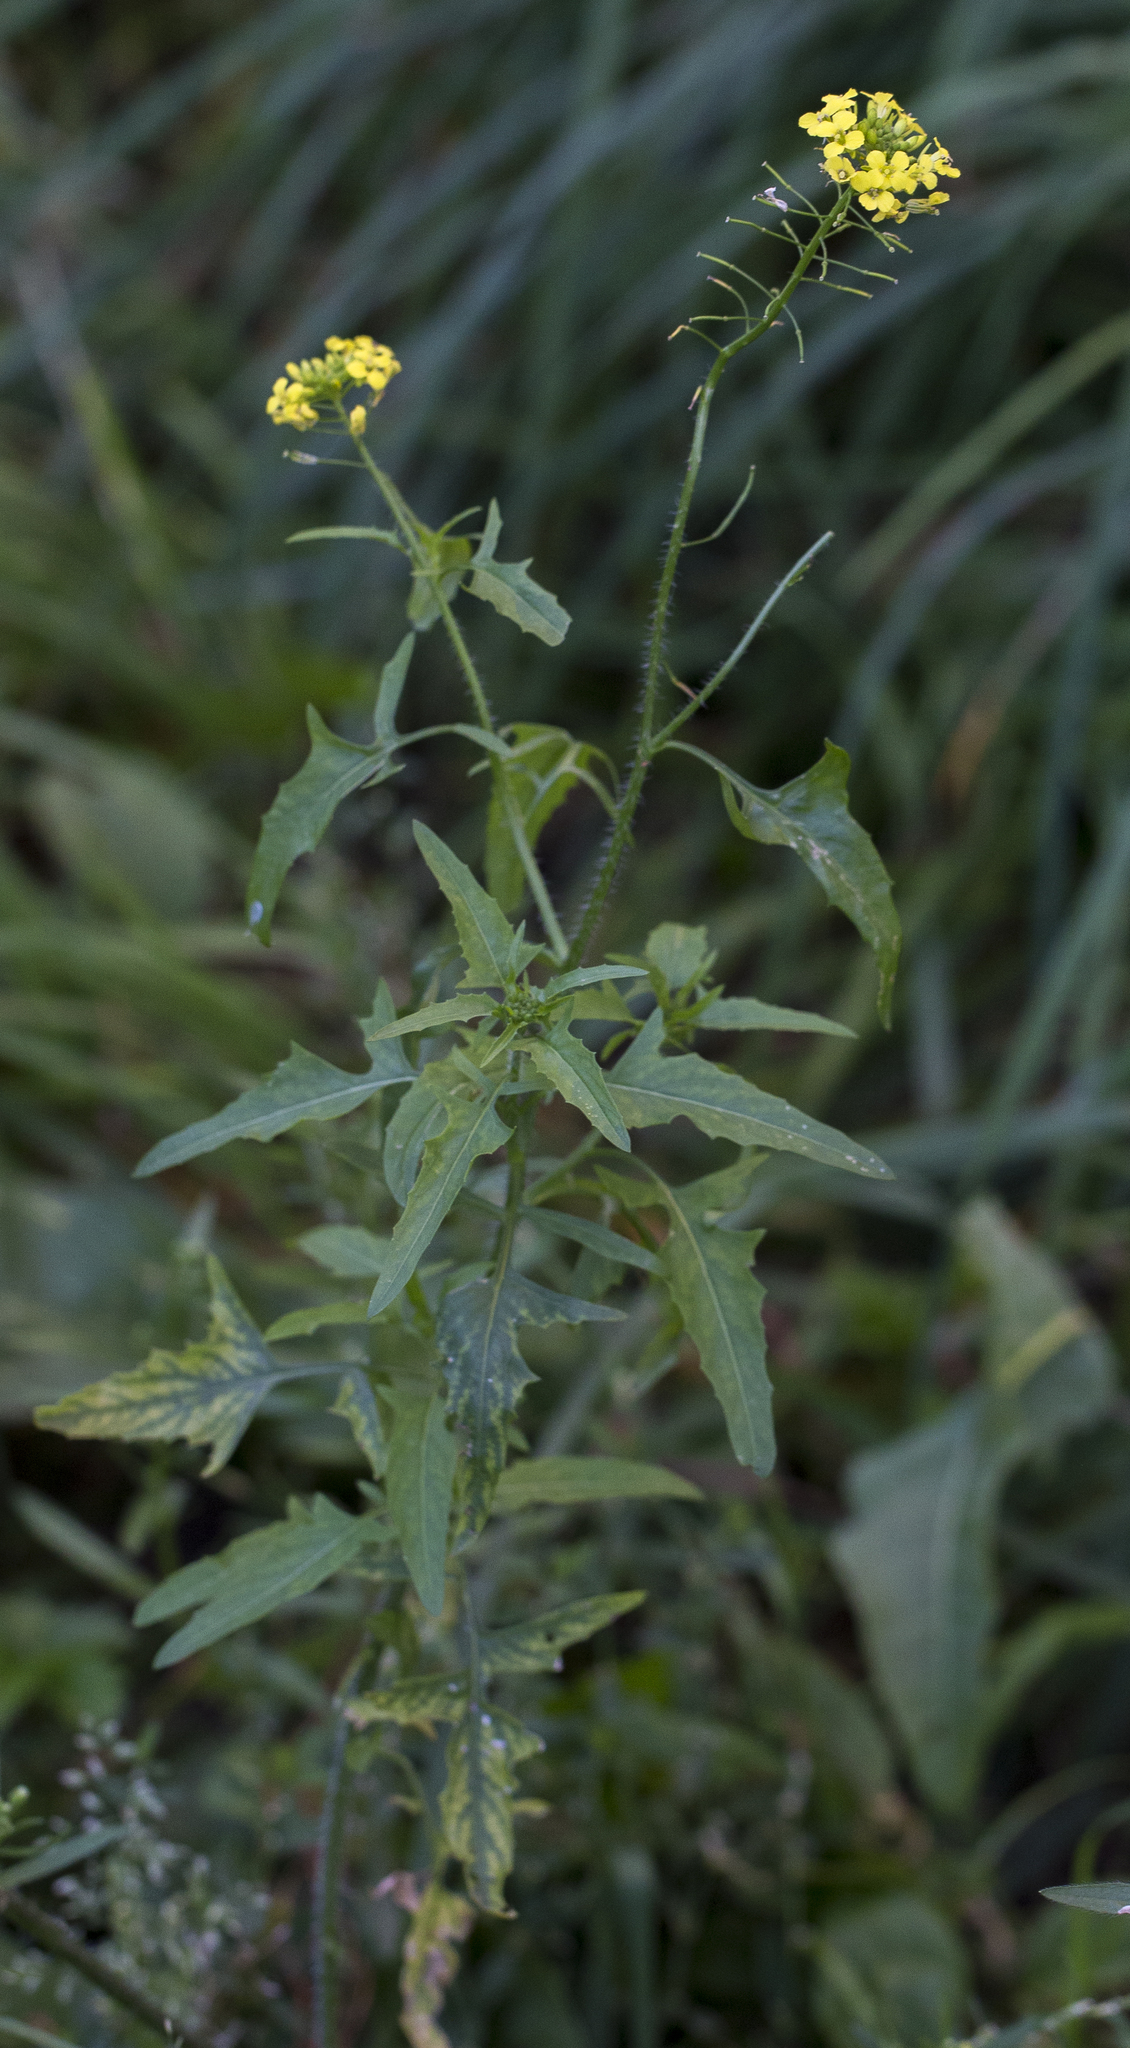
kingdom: Plantae
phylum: Tracheophyta
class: Magnoliopsida
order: Brassicales
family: Brassicaceae
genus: Sisymbrium
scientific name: Sisymbrium loeselii
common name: False london-rocket
